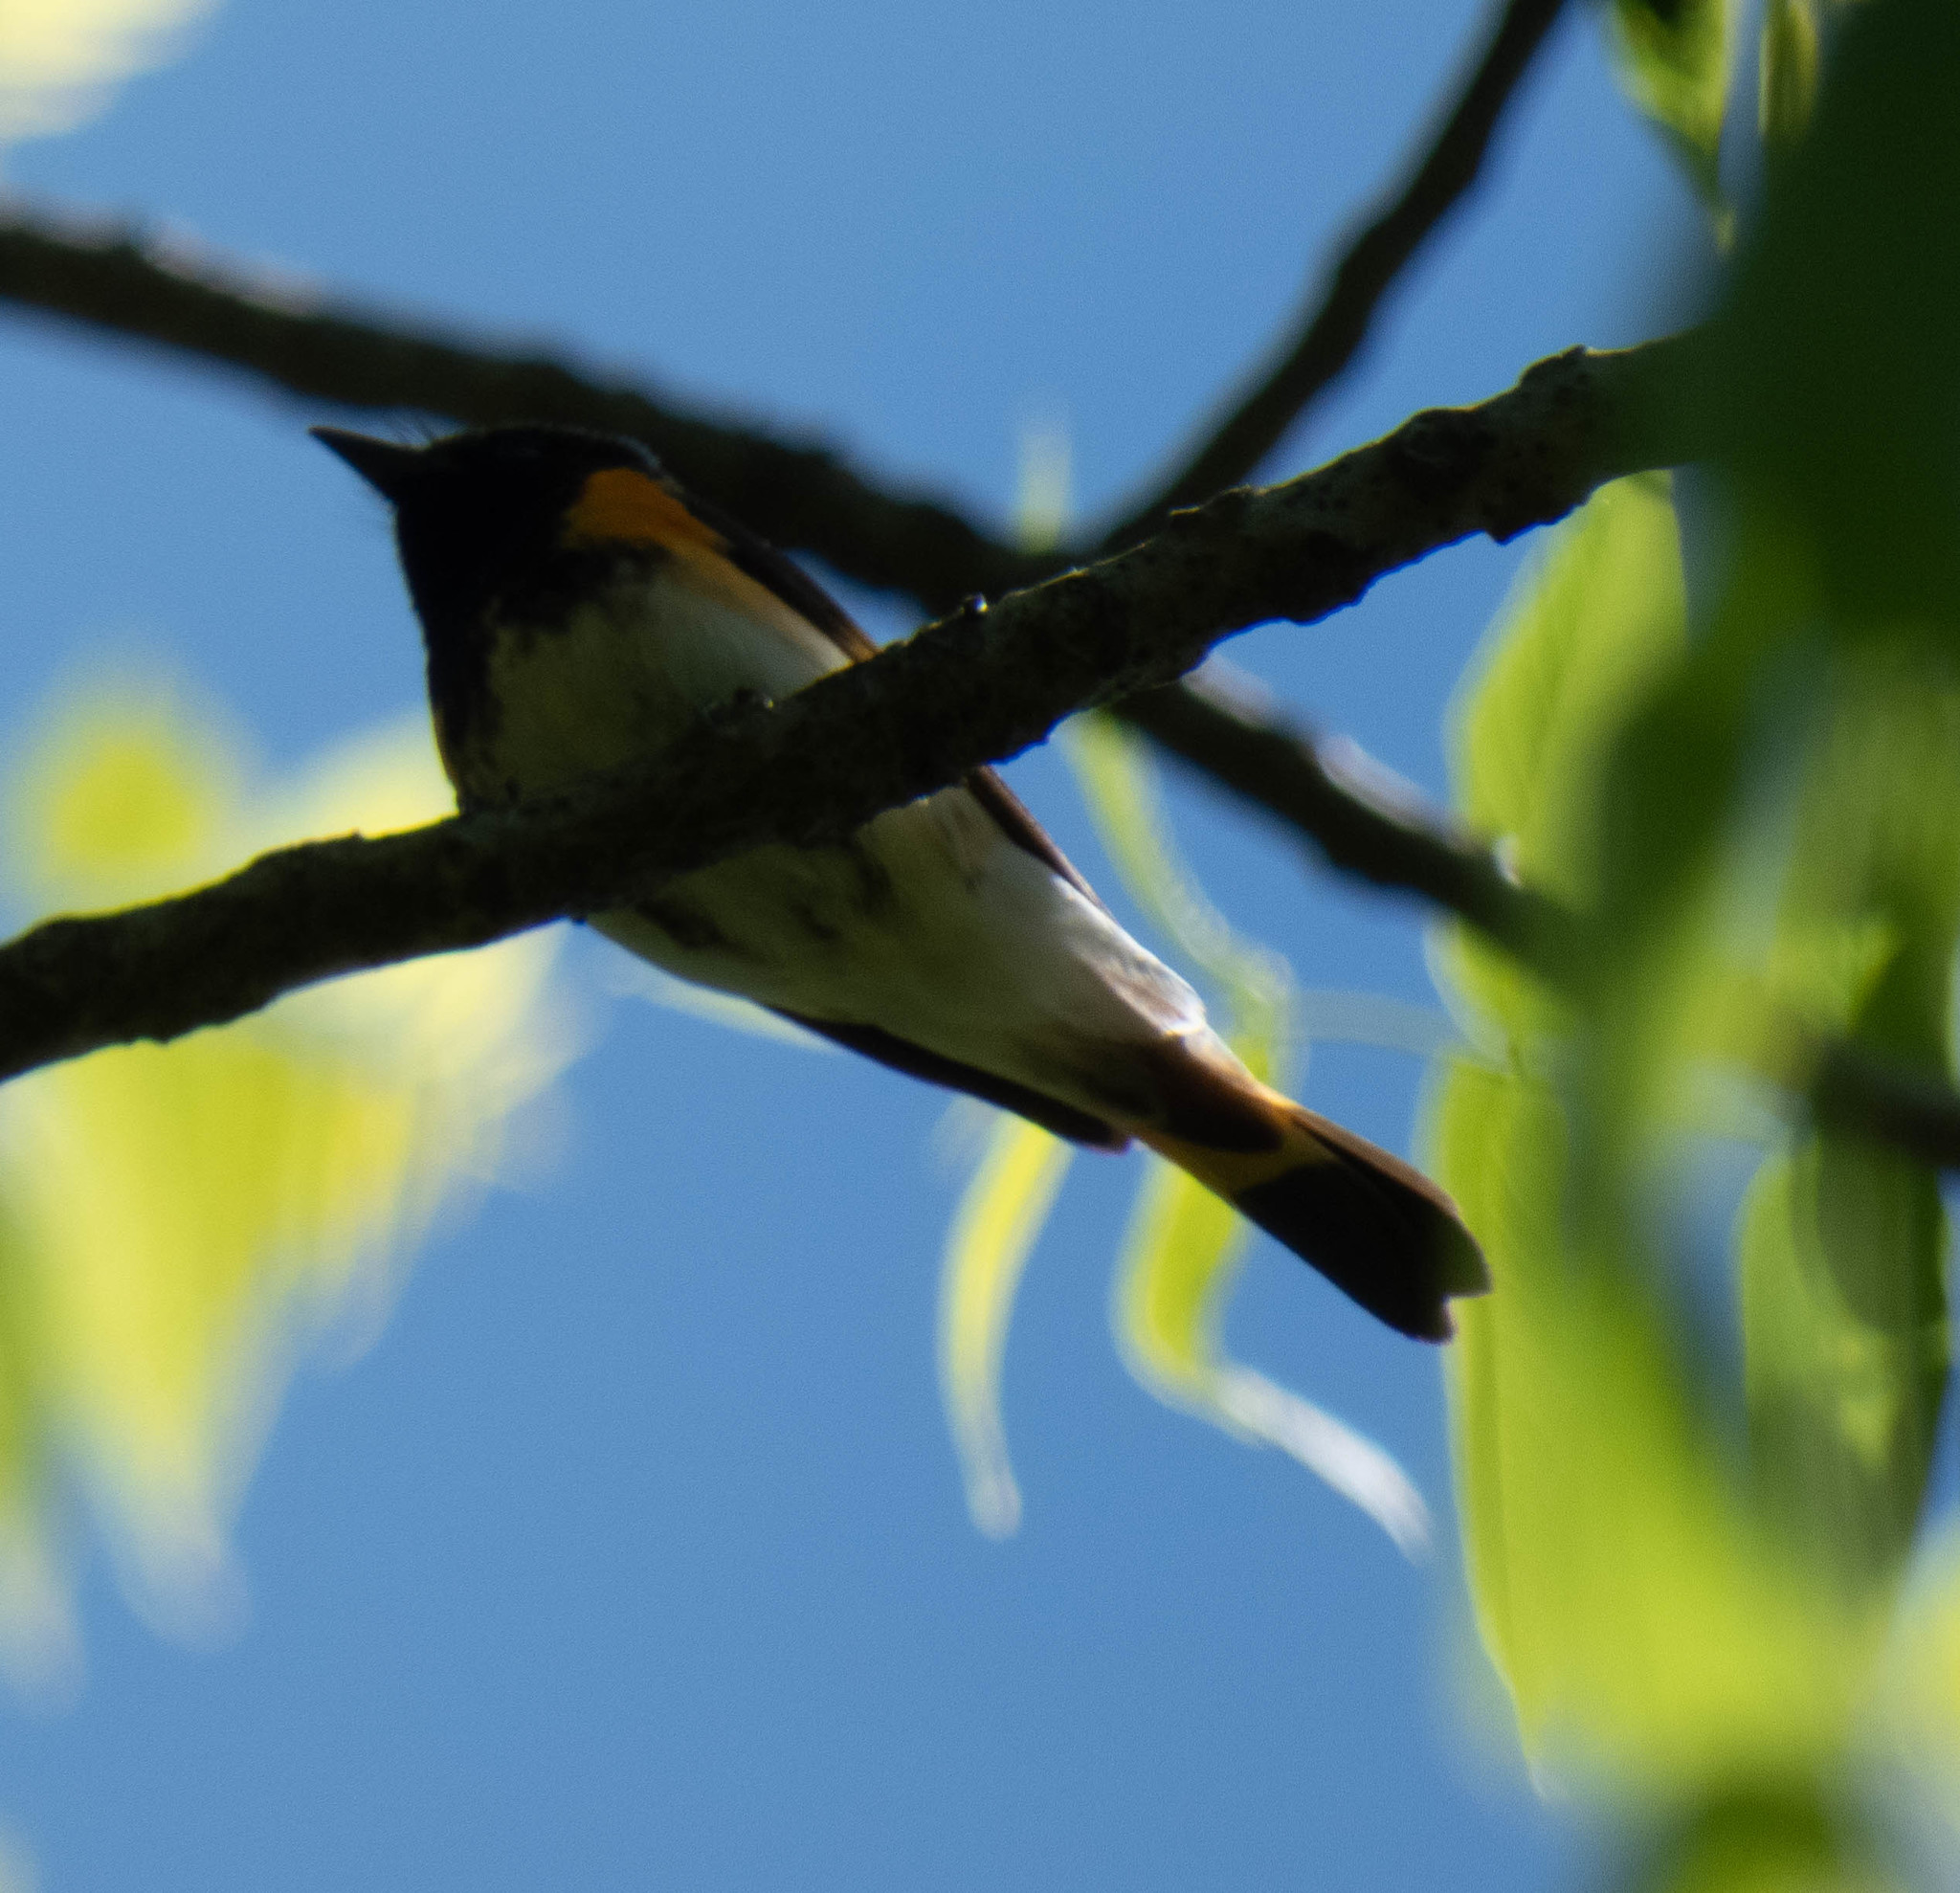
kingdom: Animalia
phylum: Chordata
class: Aves
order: Passeriformes
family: Parulidae
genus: Setophaga
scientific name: Setophaga ruticilla
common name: American redstart
